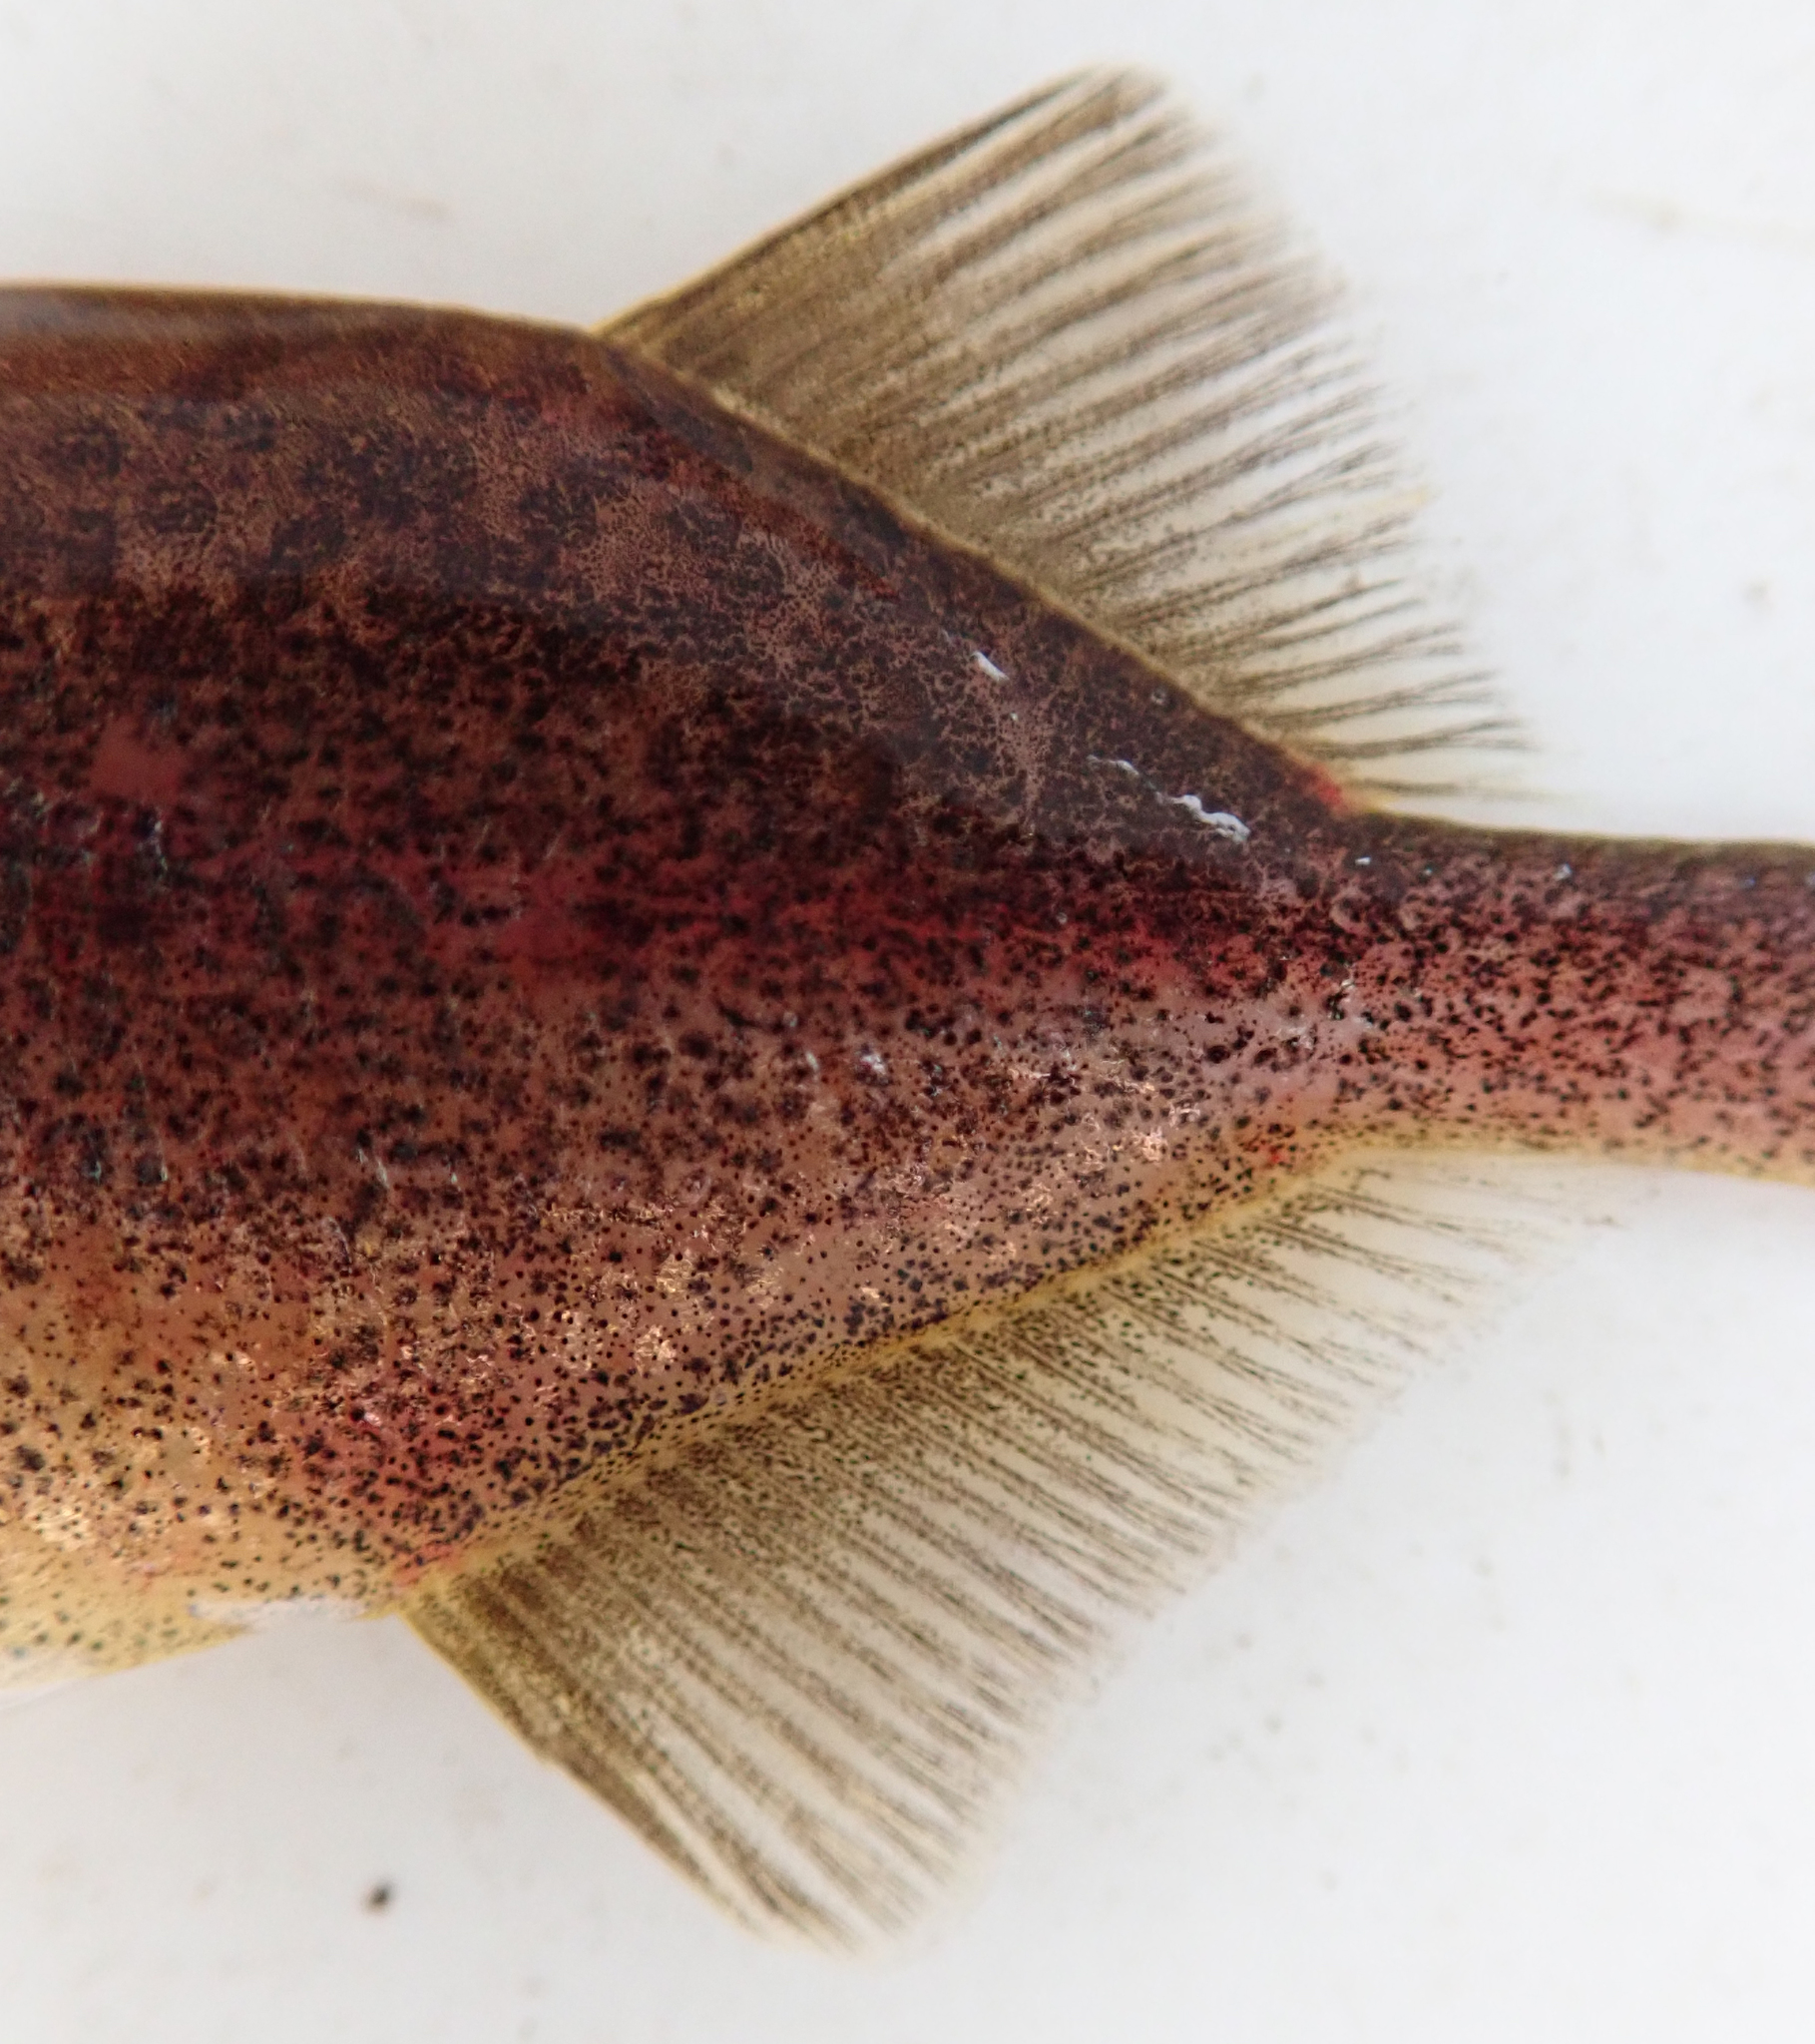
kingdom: Animalia
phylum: Chordata
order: Osteoglossiformes
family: Mormyridae
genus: Pollimyrus
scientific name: Pollimyrus cuandoensis
